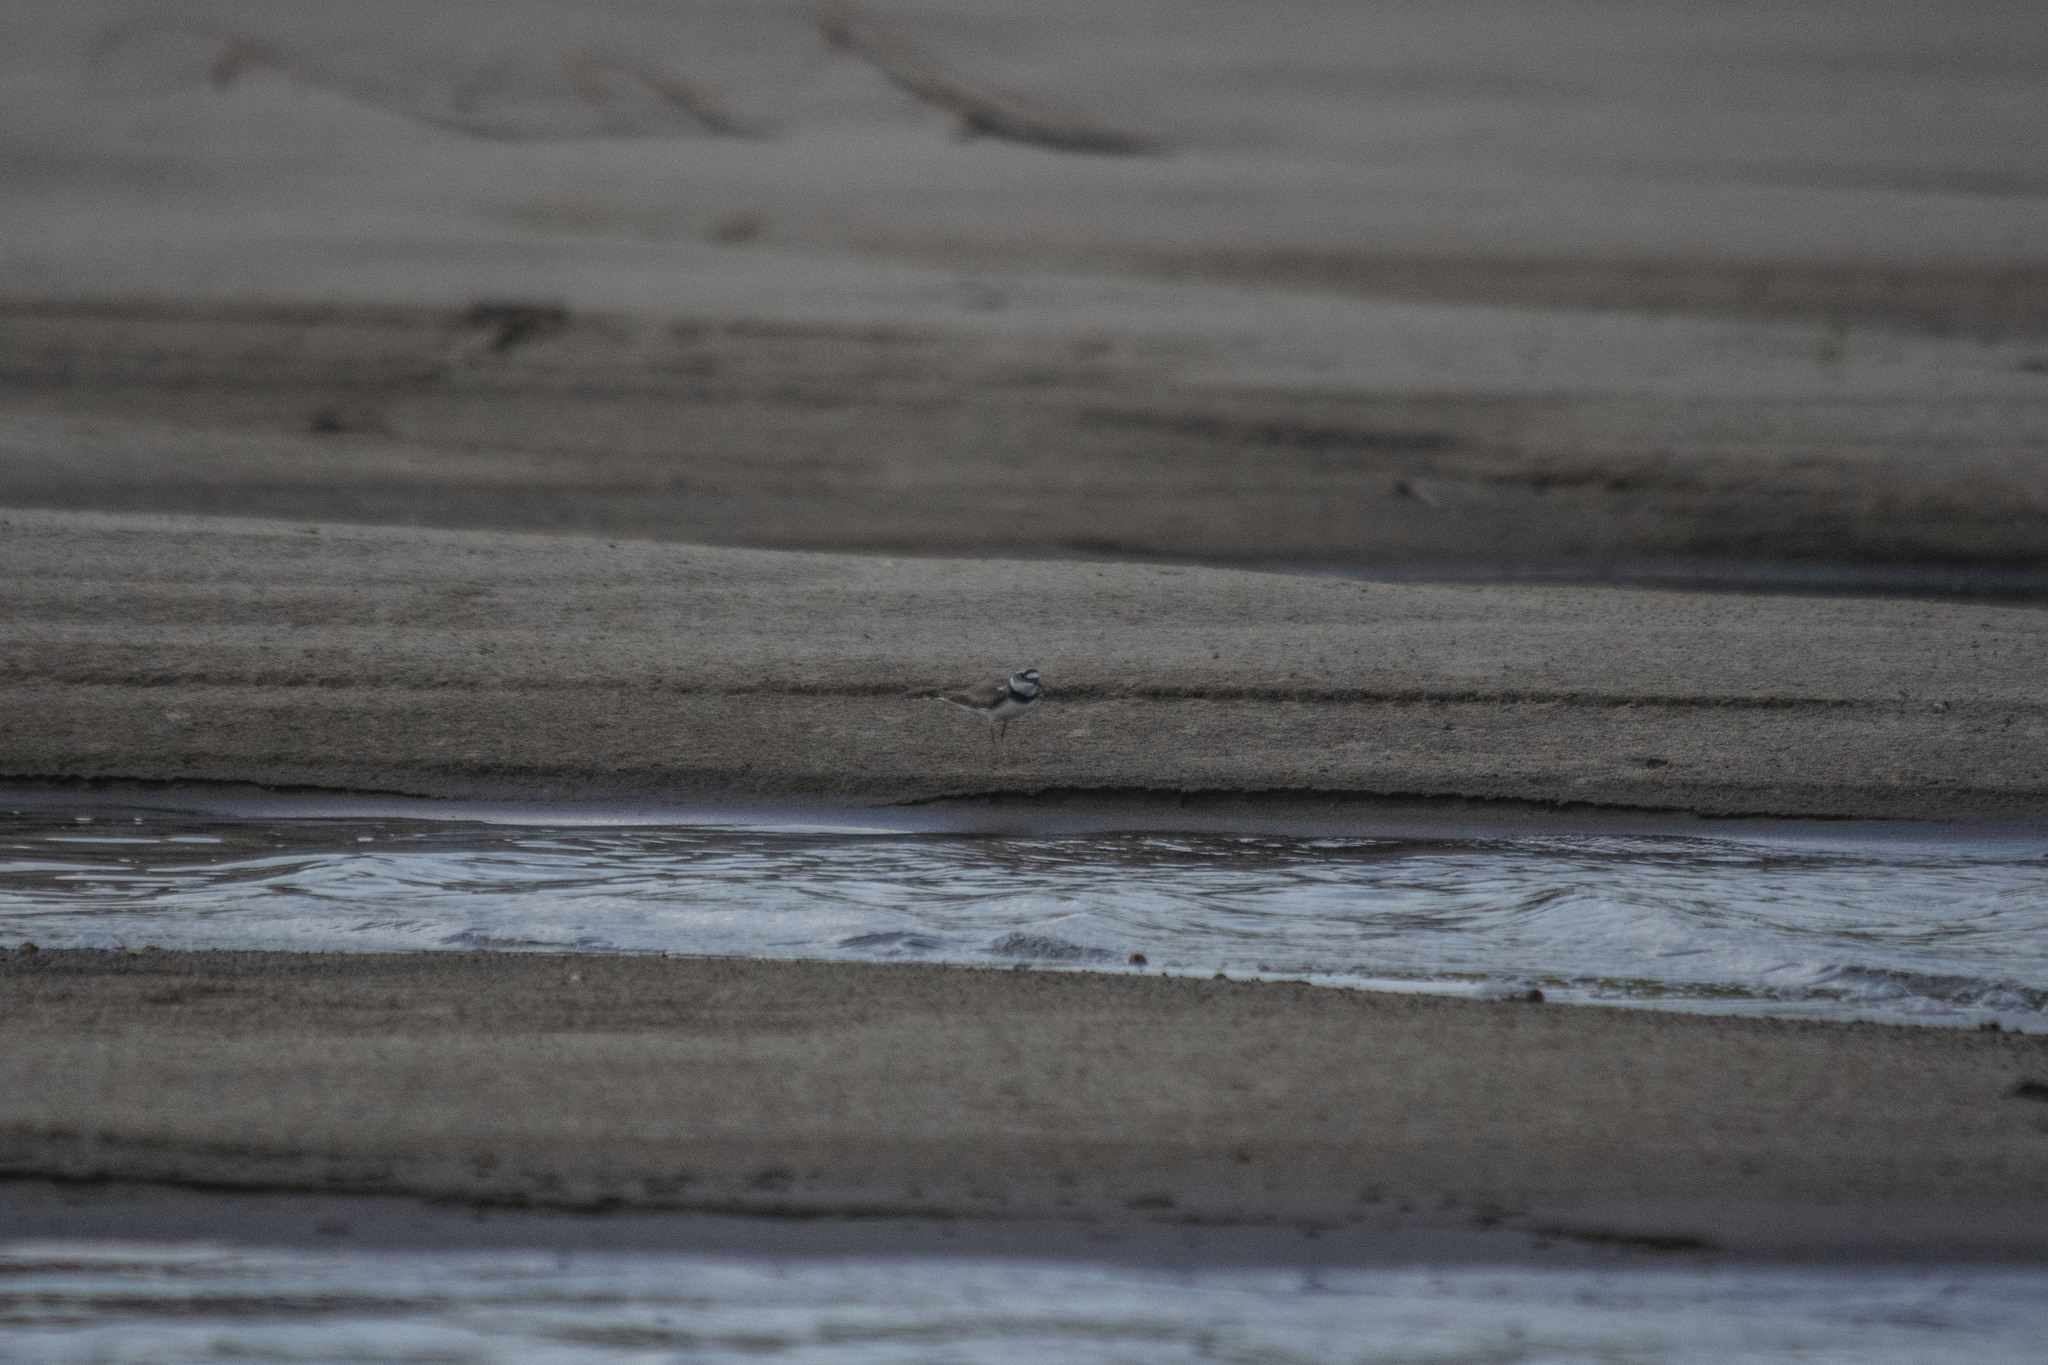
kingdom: Animalia
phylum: Chordata
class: Aves
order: Charadriiformes
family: Charadriidae
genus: Charadrius
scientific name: Charadrius dubius
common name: Little ringed plover
